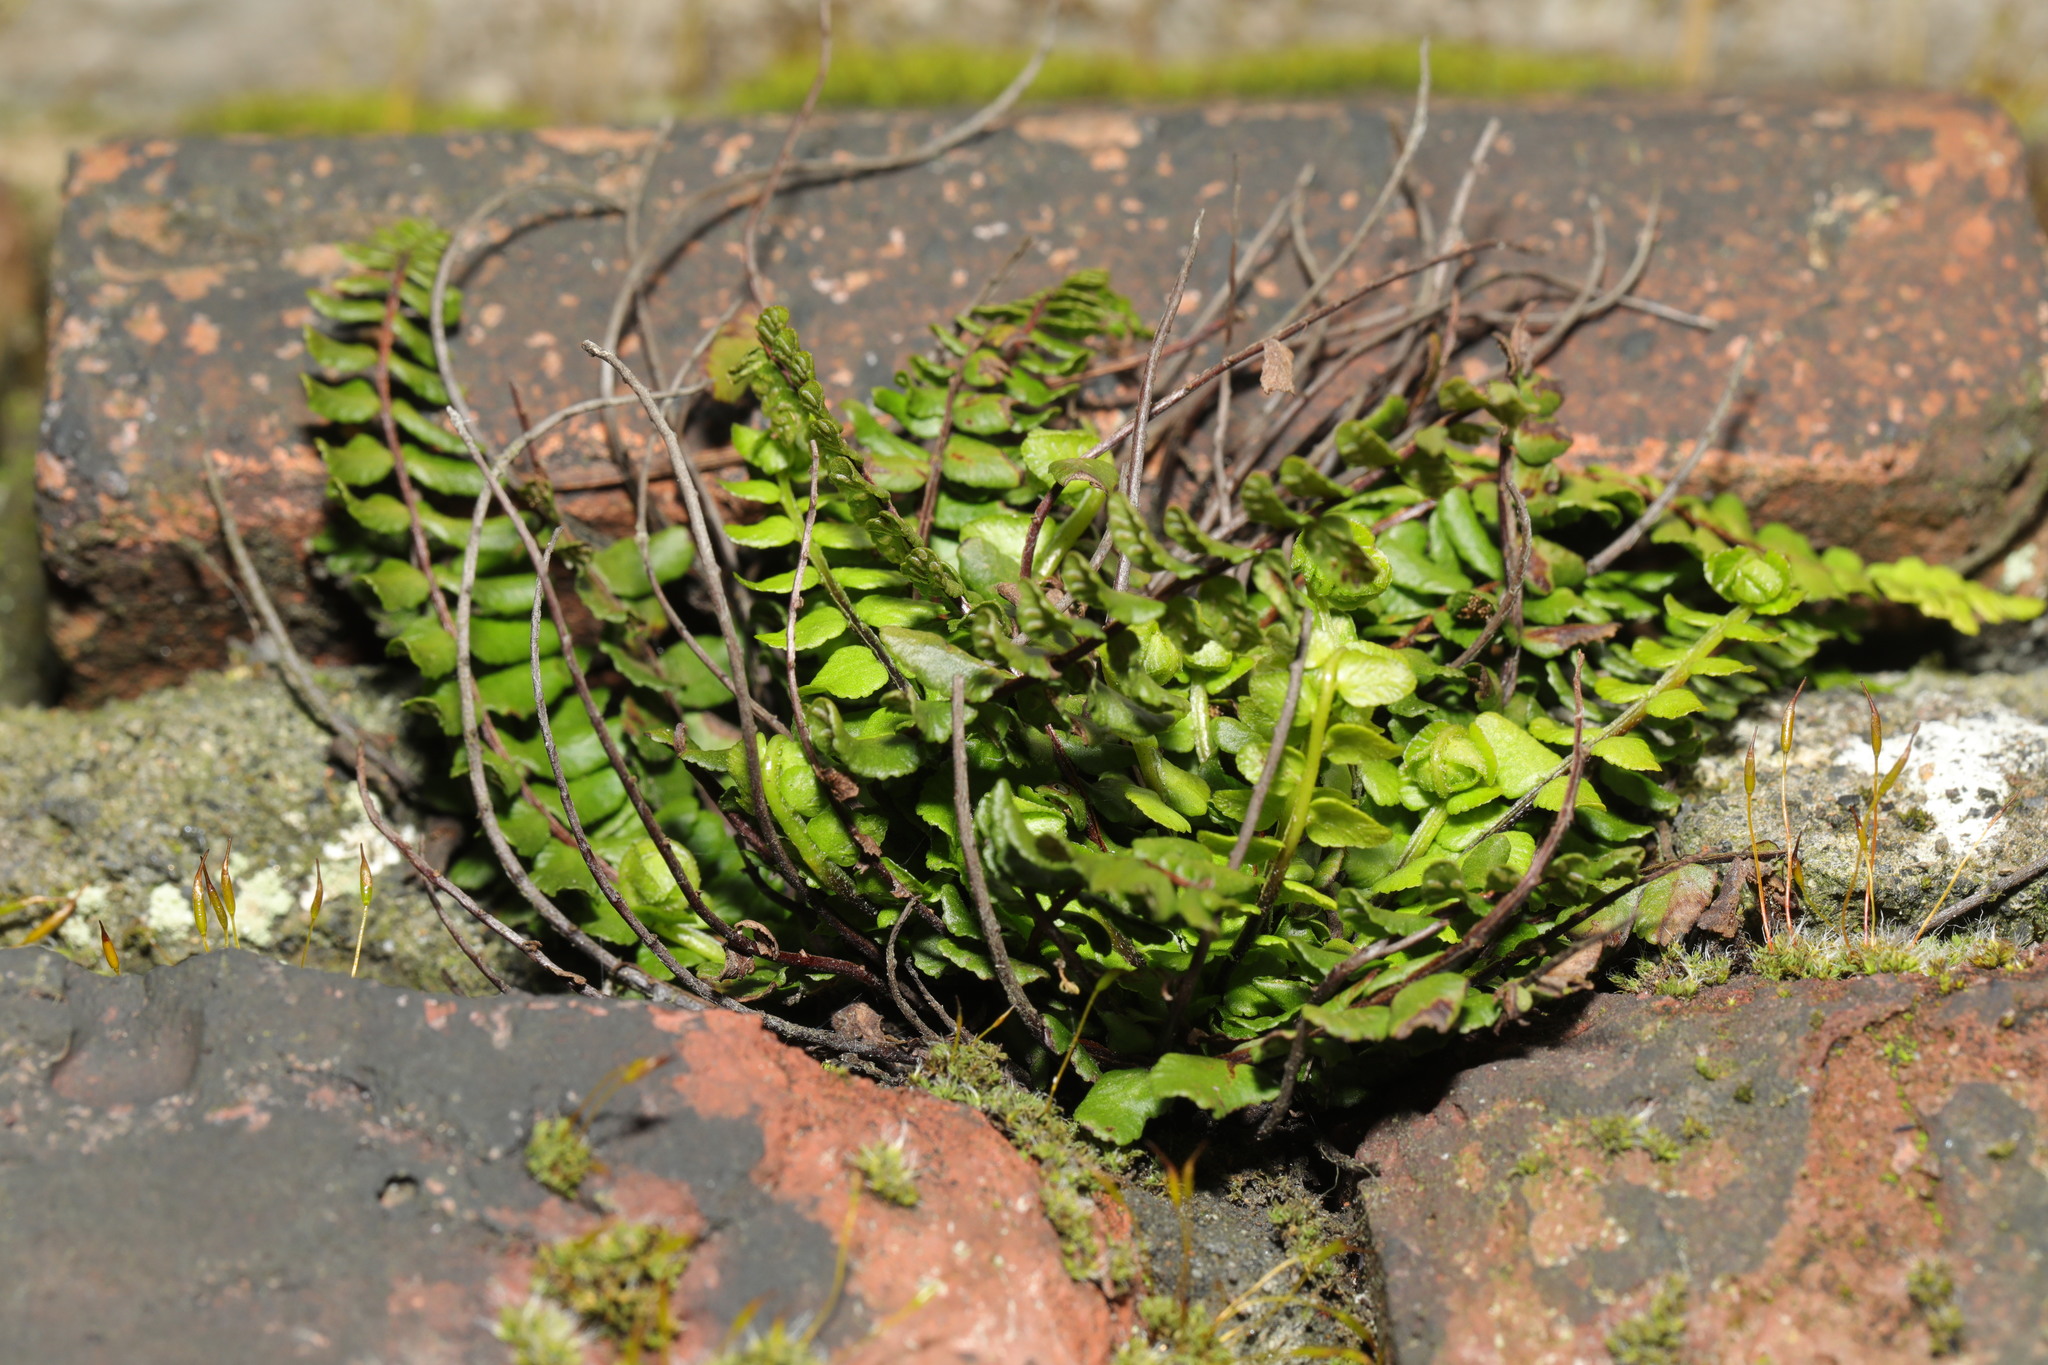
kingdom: Plantae
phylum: Tracheophyta
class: Polypodiopsida
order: Polypodiales
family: Aspleniaceae
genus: Asplenium
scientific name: Asplenium trichomanes
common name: Maidenhair spleenwort
